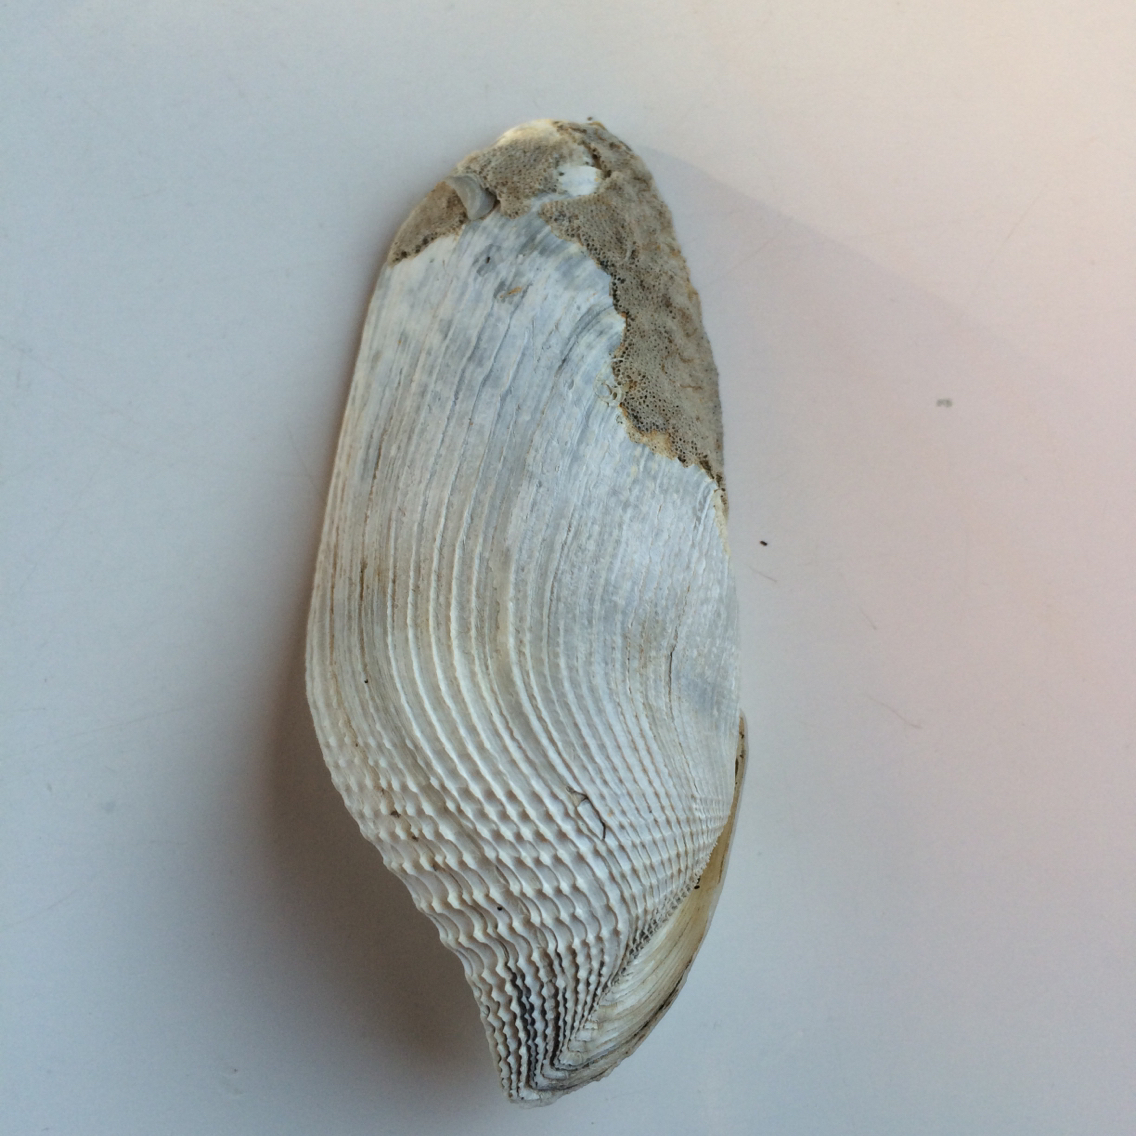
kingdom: Animalia
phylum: Mollusca
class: Bivalvia
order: Myida
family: Pholadidae
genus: Barnea
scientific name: Barnea similis
